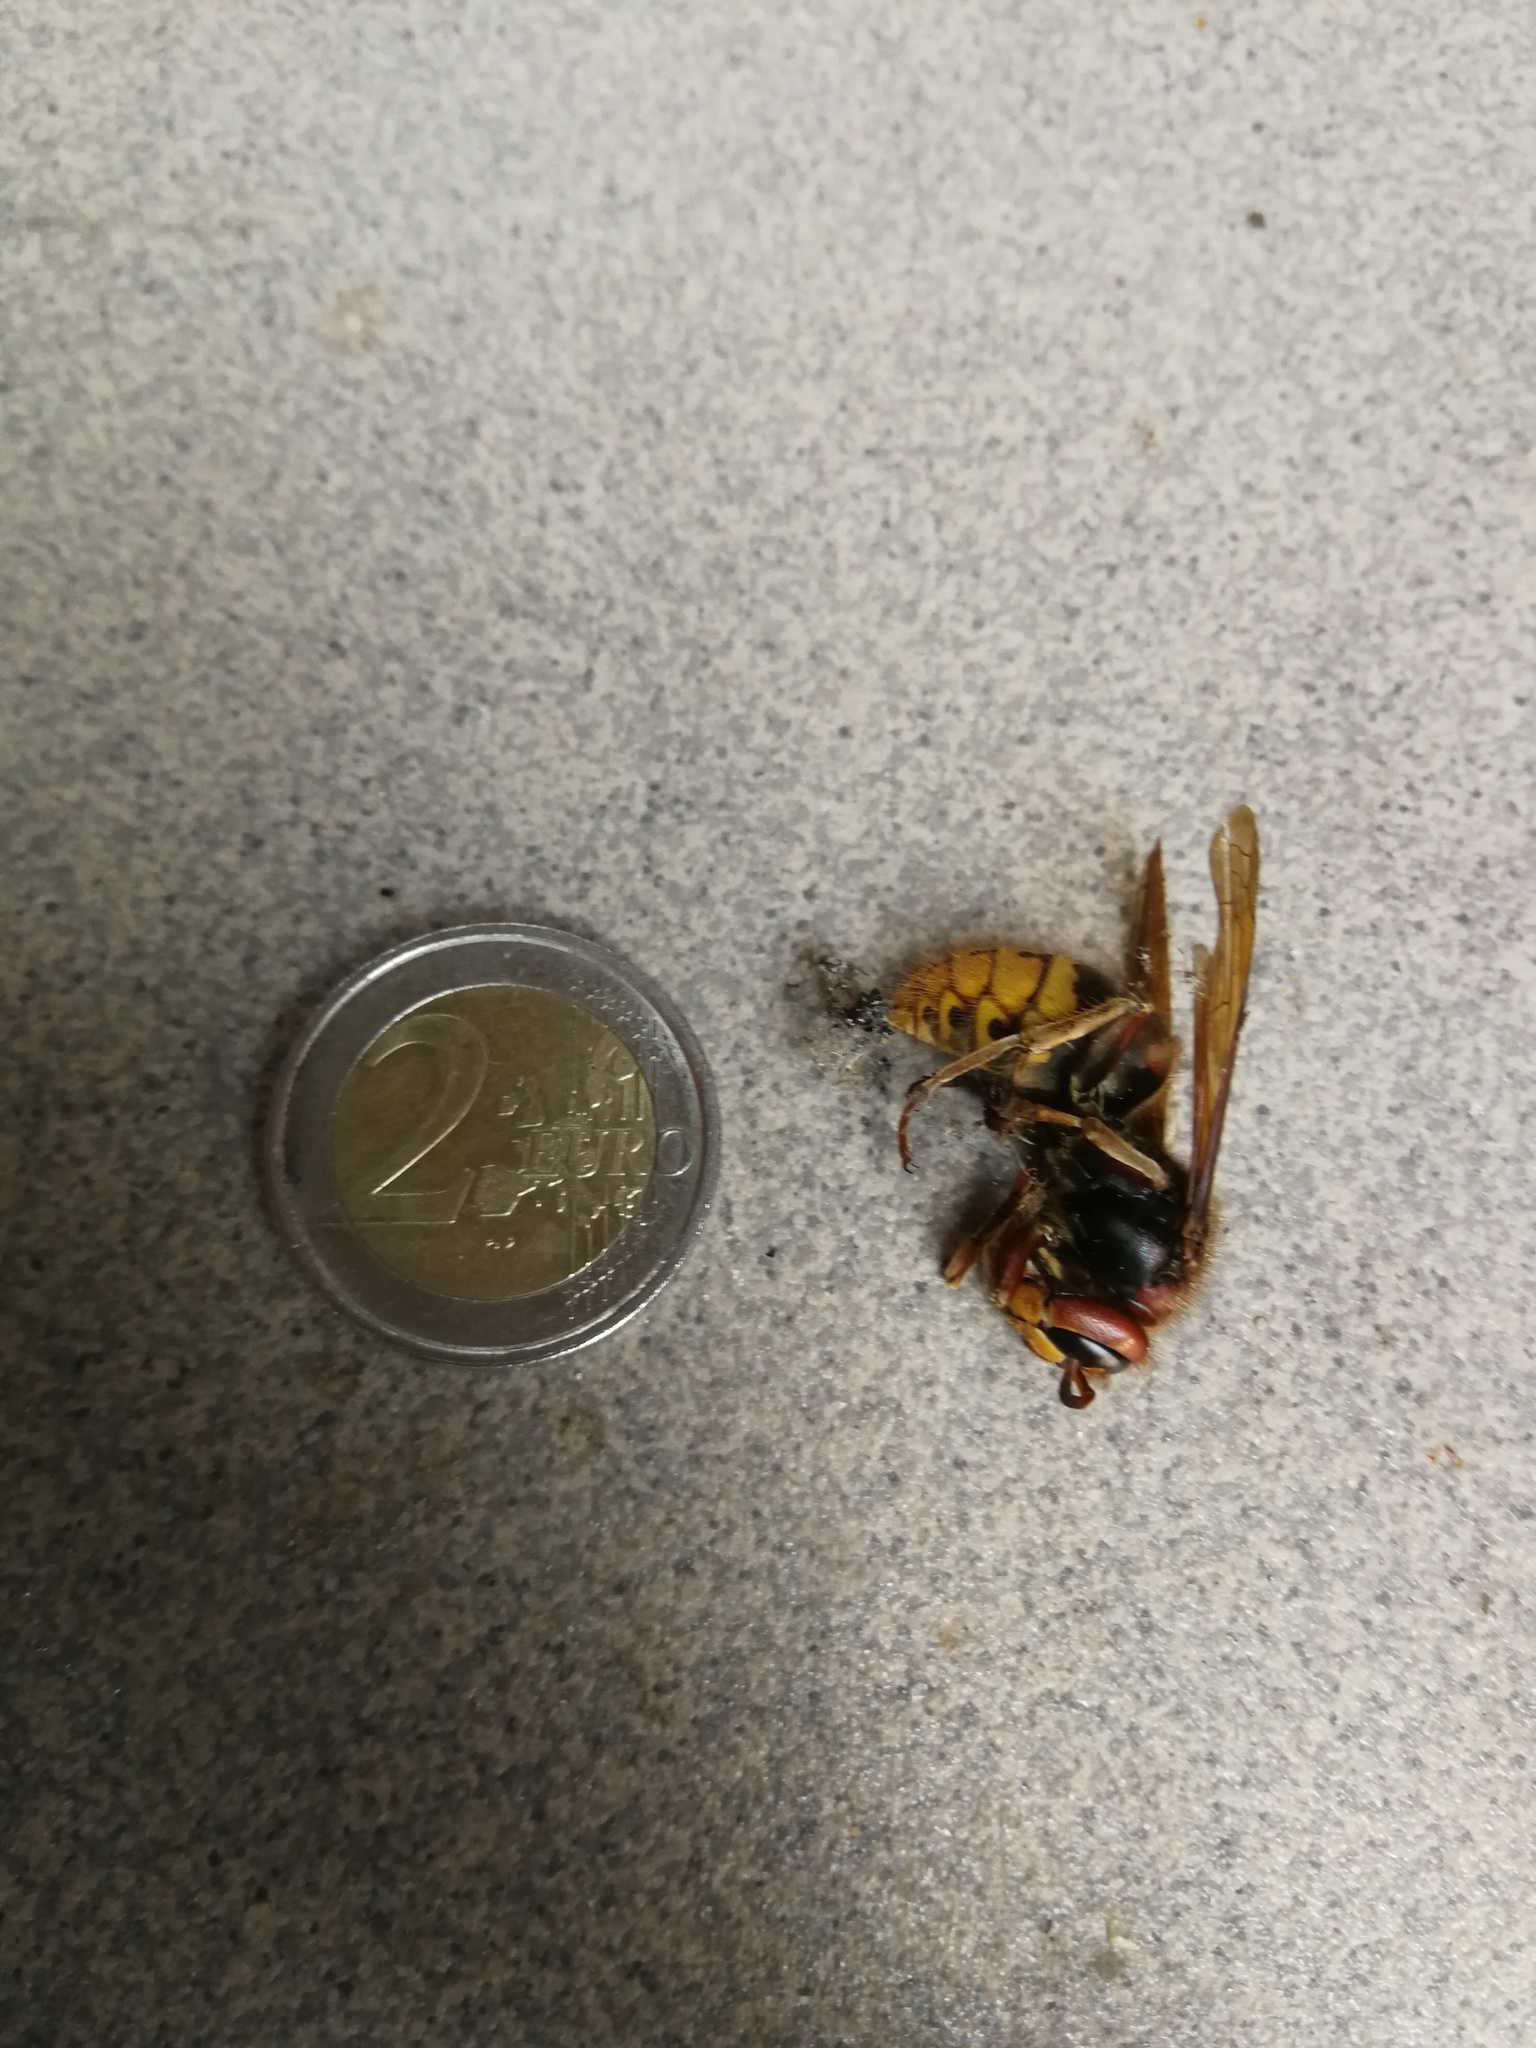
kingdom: Animalia
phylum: Arthropoda
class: Insecta
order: Hymenoptera
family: Vespidae
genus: Vespa
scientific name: Vespa crabro
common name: Hornet
